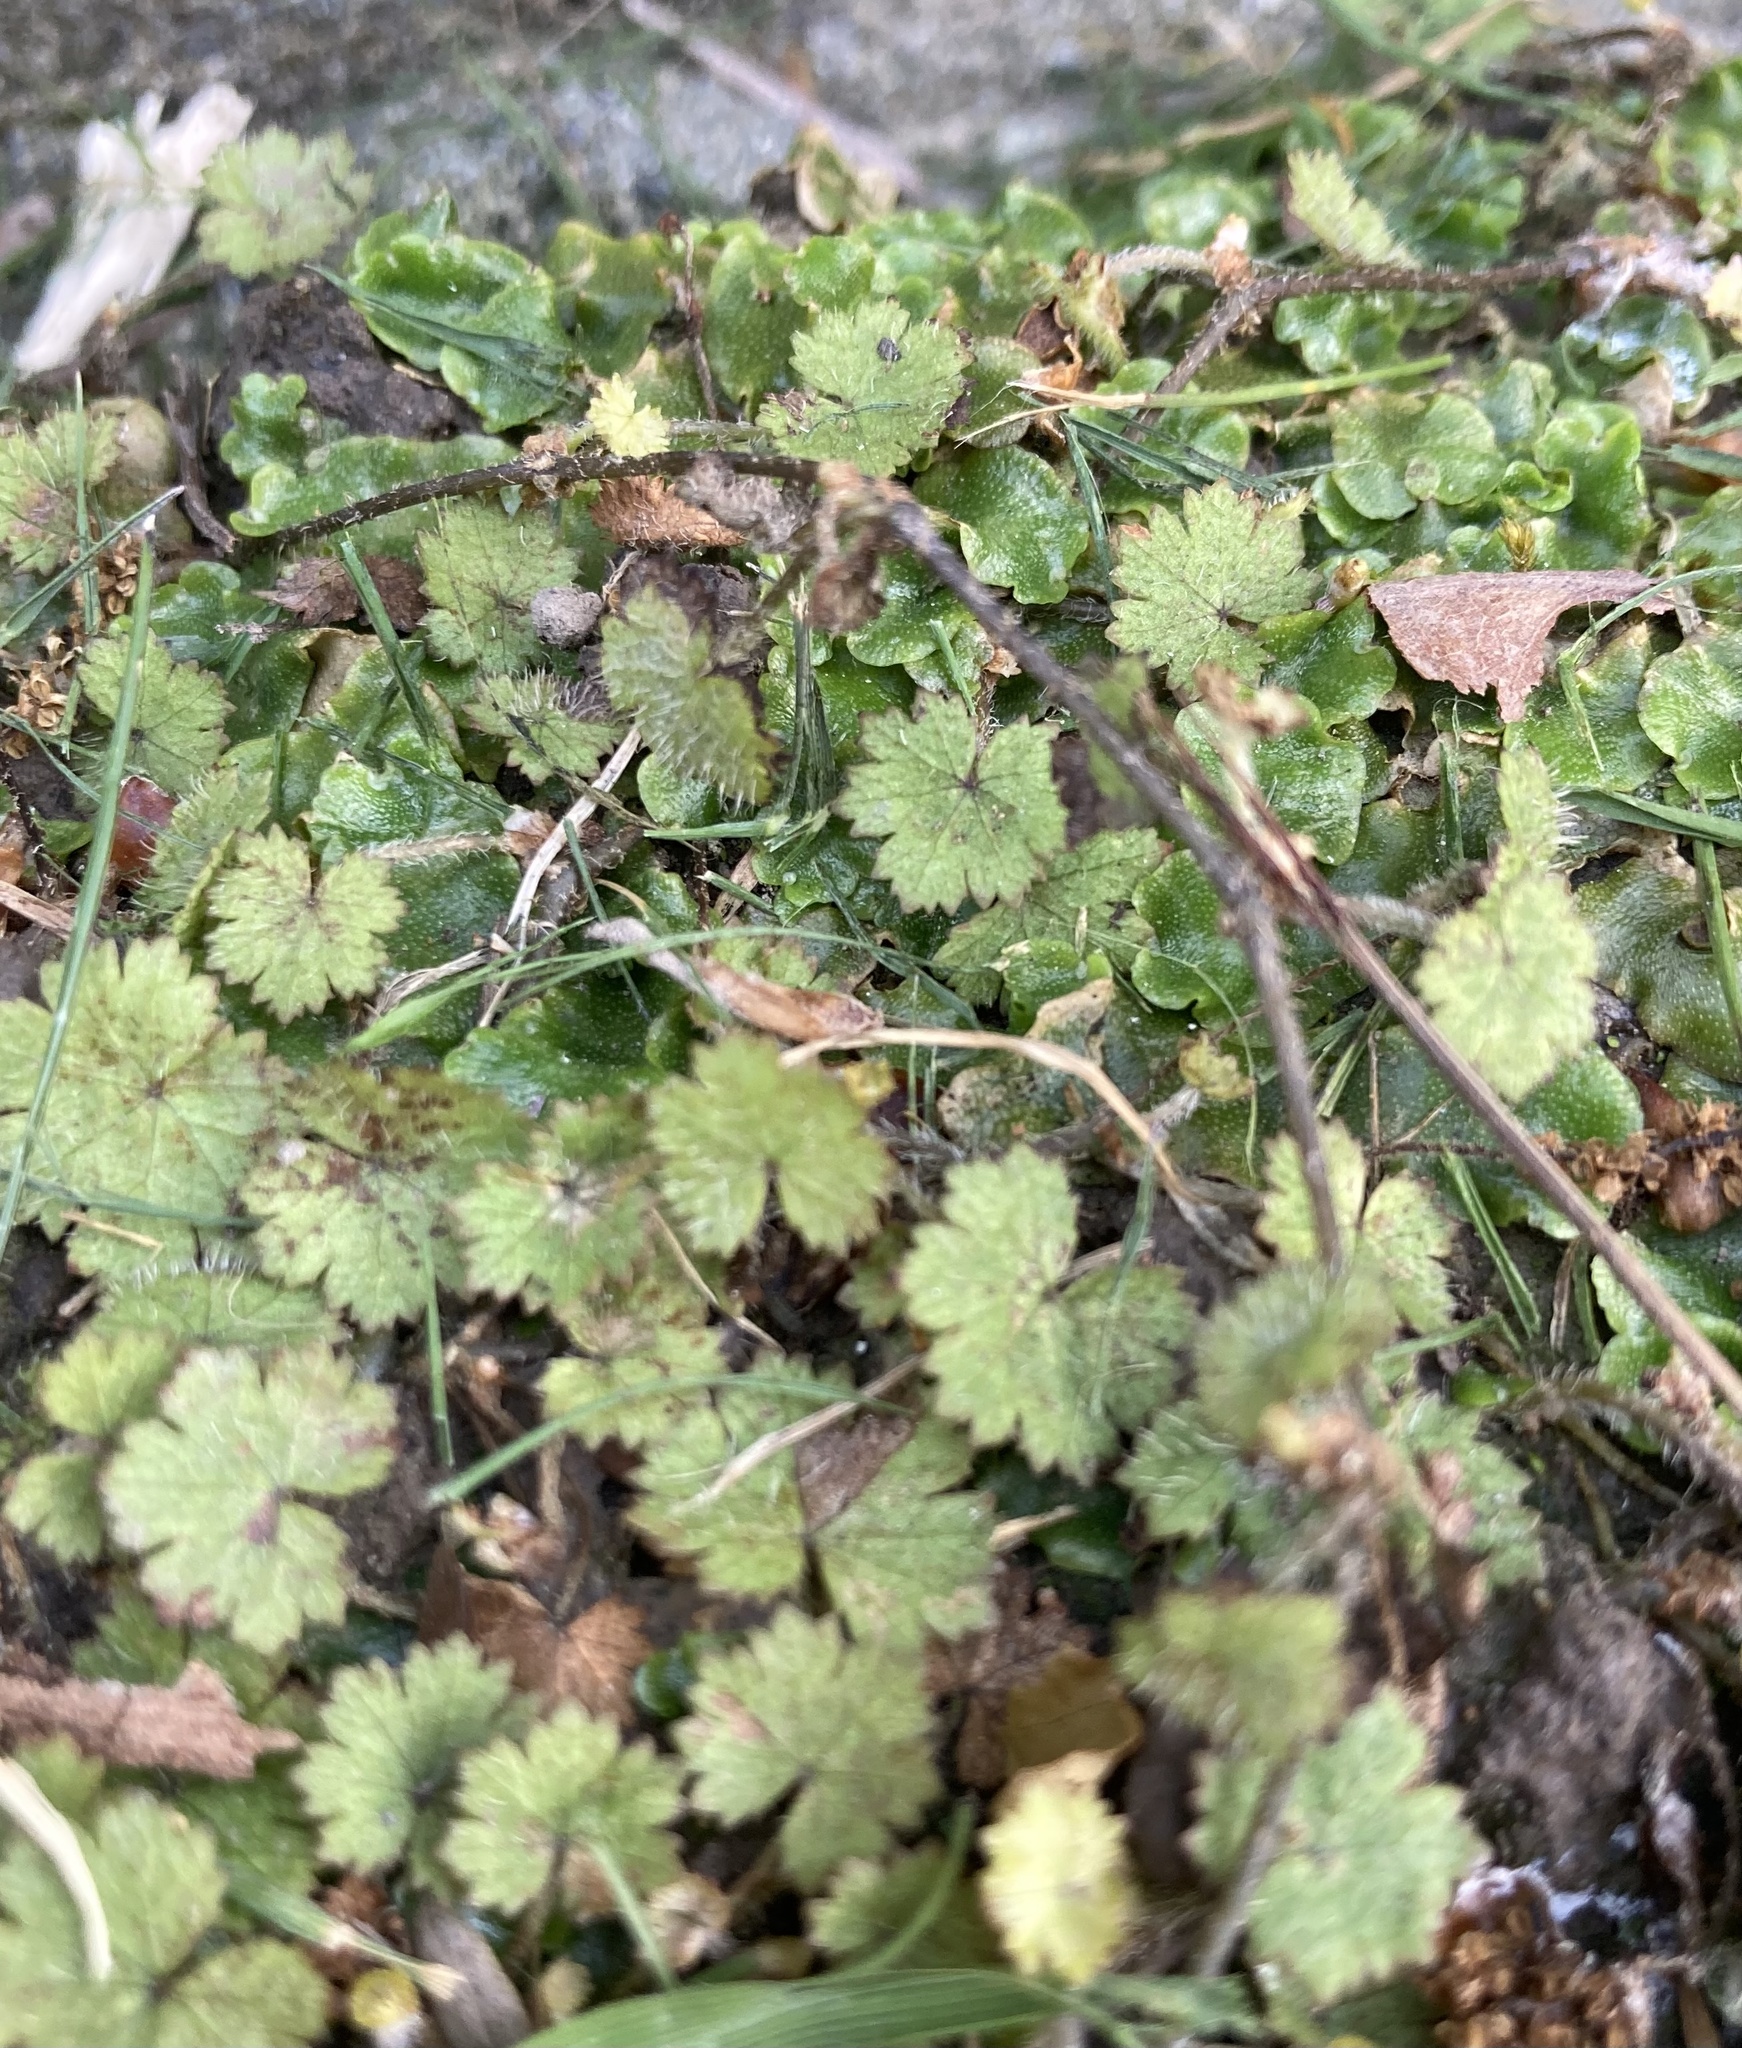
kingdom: Plantae
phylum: Tracheophyta
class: Magnoliopsida
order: Apiales
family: Araliaceae
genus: Hydrocotyle
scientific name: Hydrocotyle moschata
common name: Hairy pennywort
